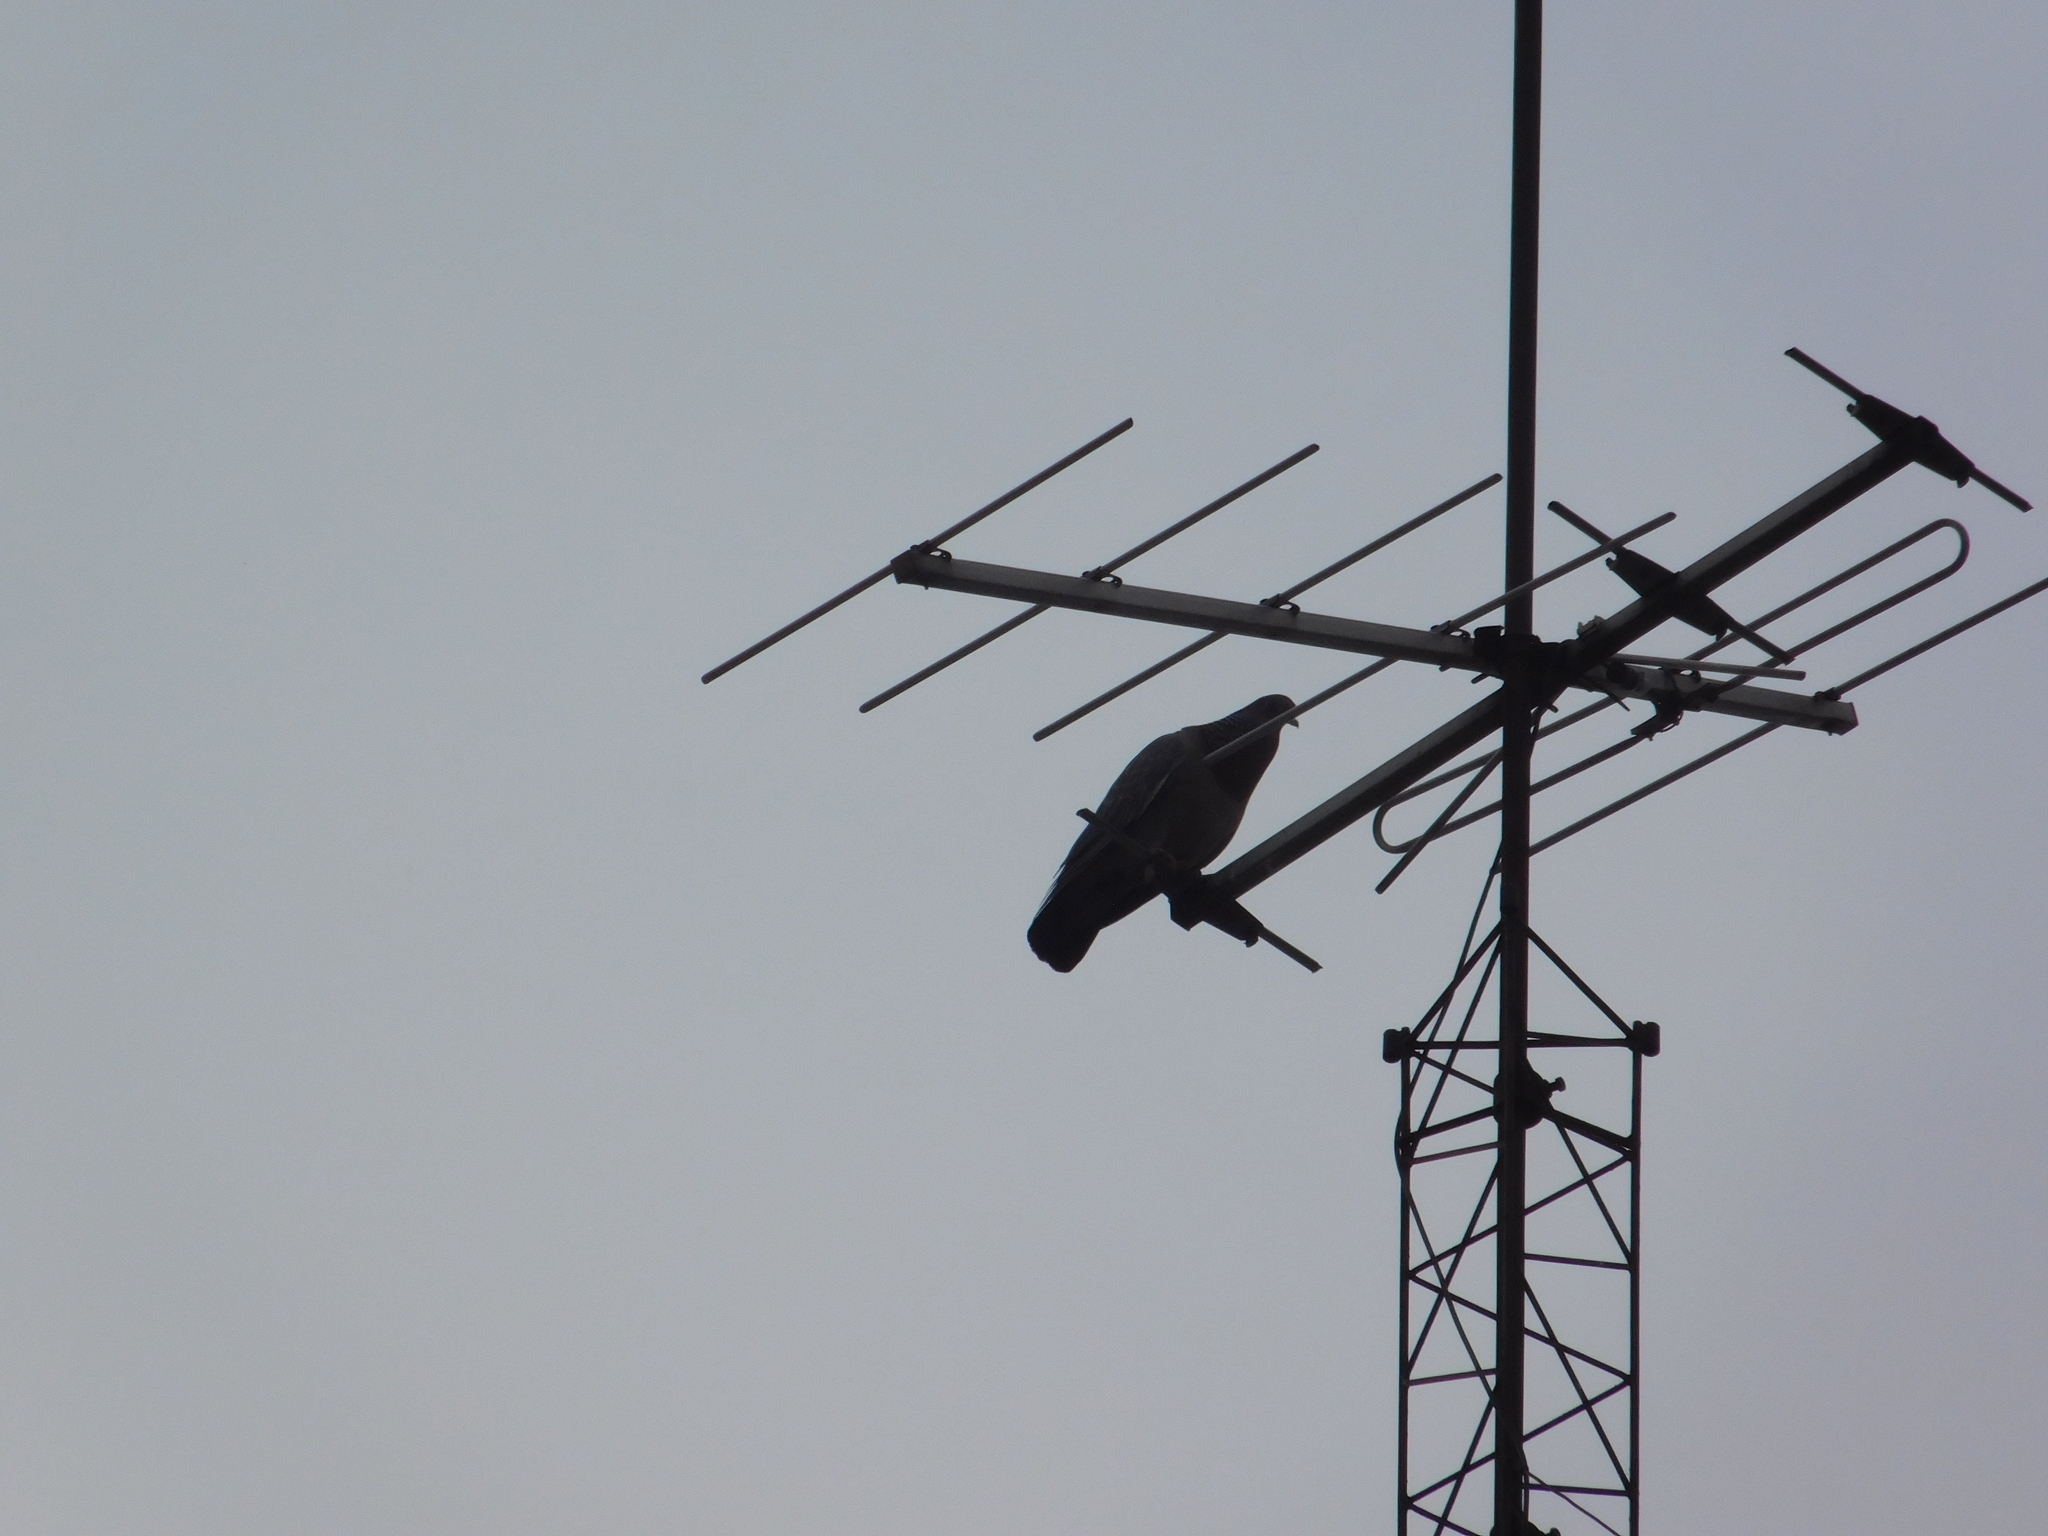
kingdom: Animalia
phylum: Chordata
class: Aves
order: Columbiformes
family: Columbidae
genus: Patagioenas
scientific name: Patagioenas picazuro
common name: Picazuro pigeon
